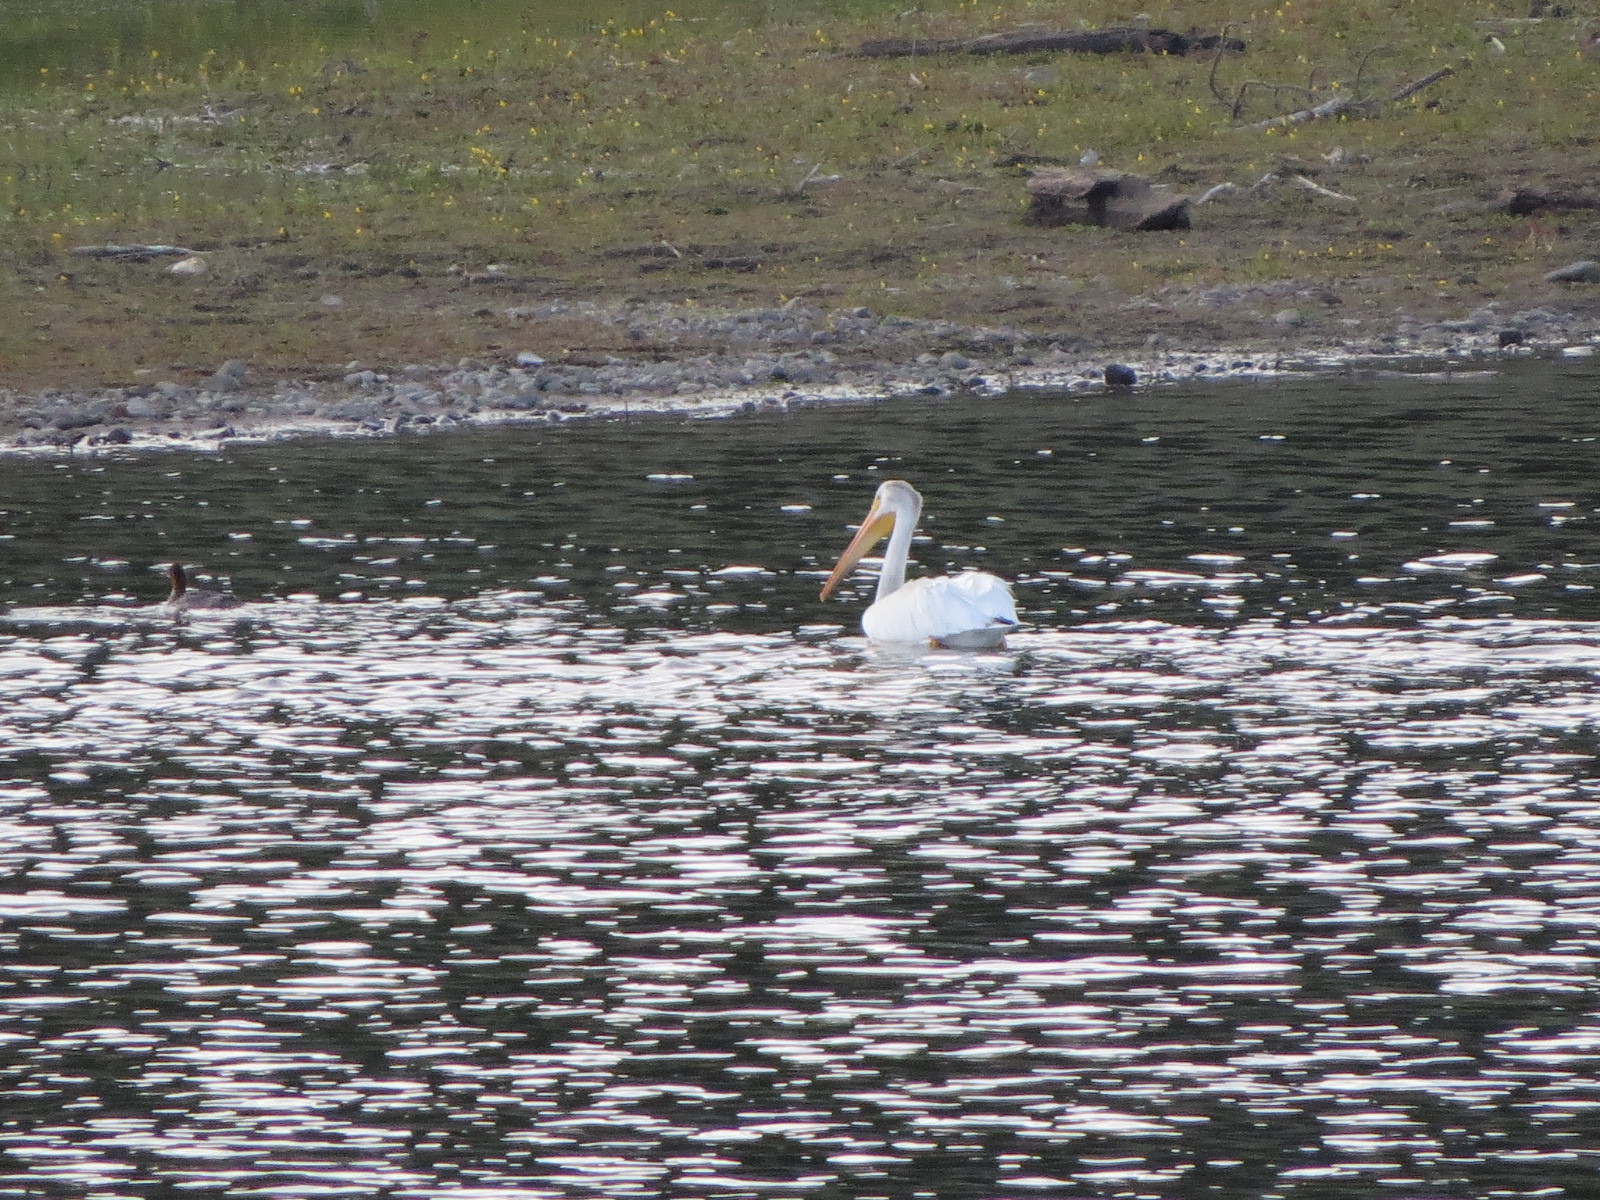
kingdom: Animalia
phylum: Chordata
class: Aves
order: Pelecaniformes
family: Pelecanidae
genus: Pelecanus
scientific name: Pelecanus erythrorhynchos
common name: American white pelican
